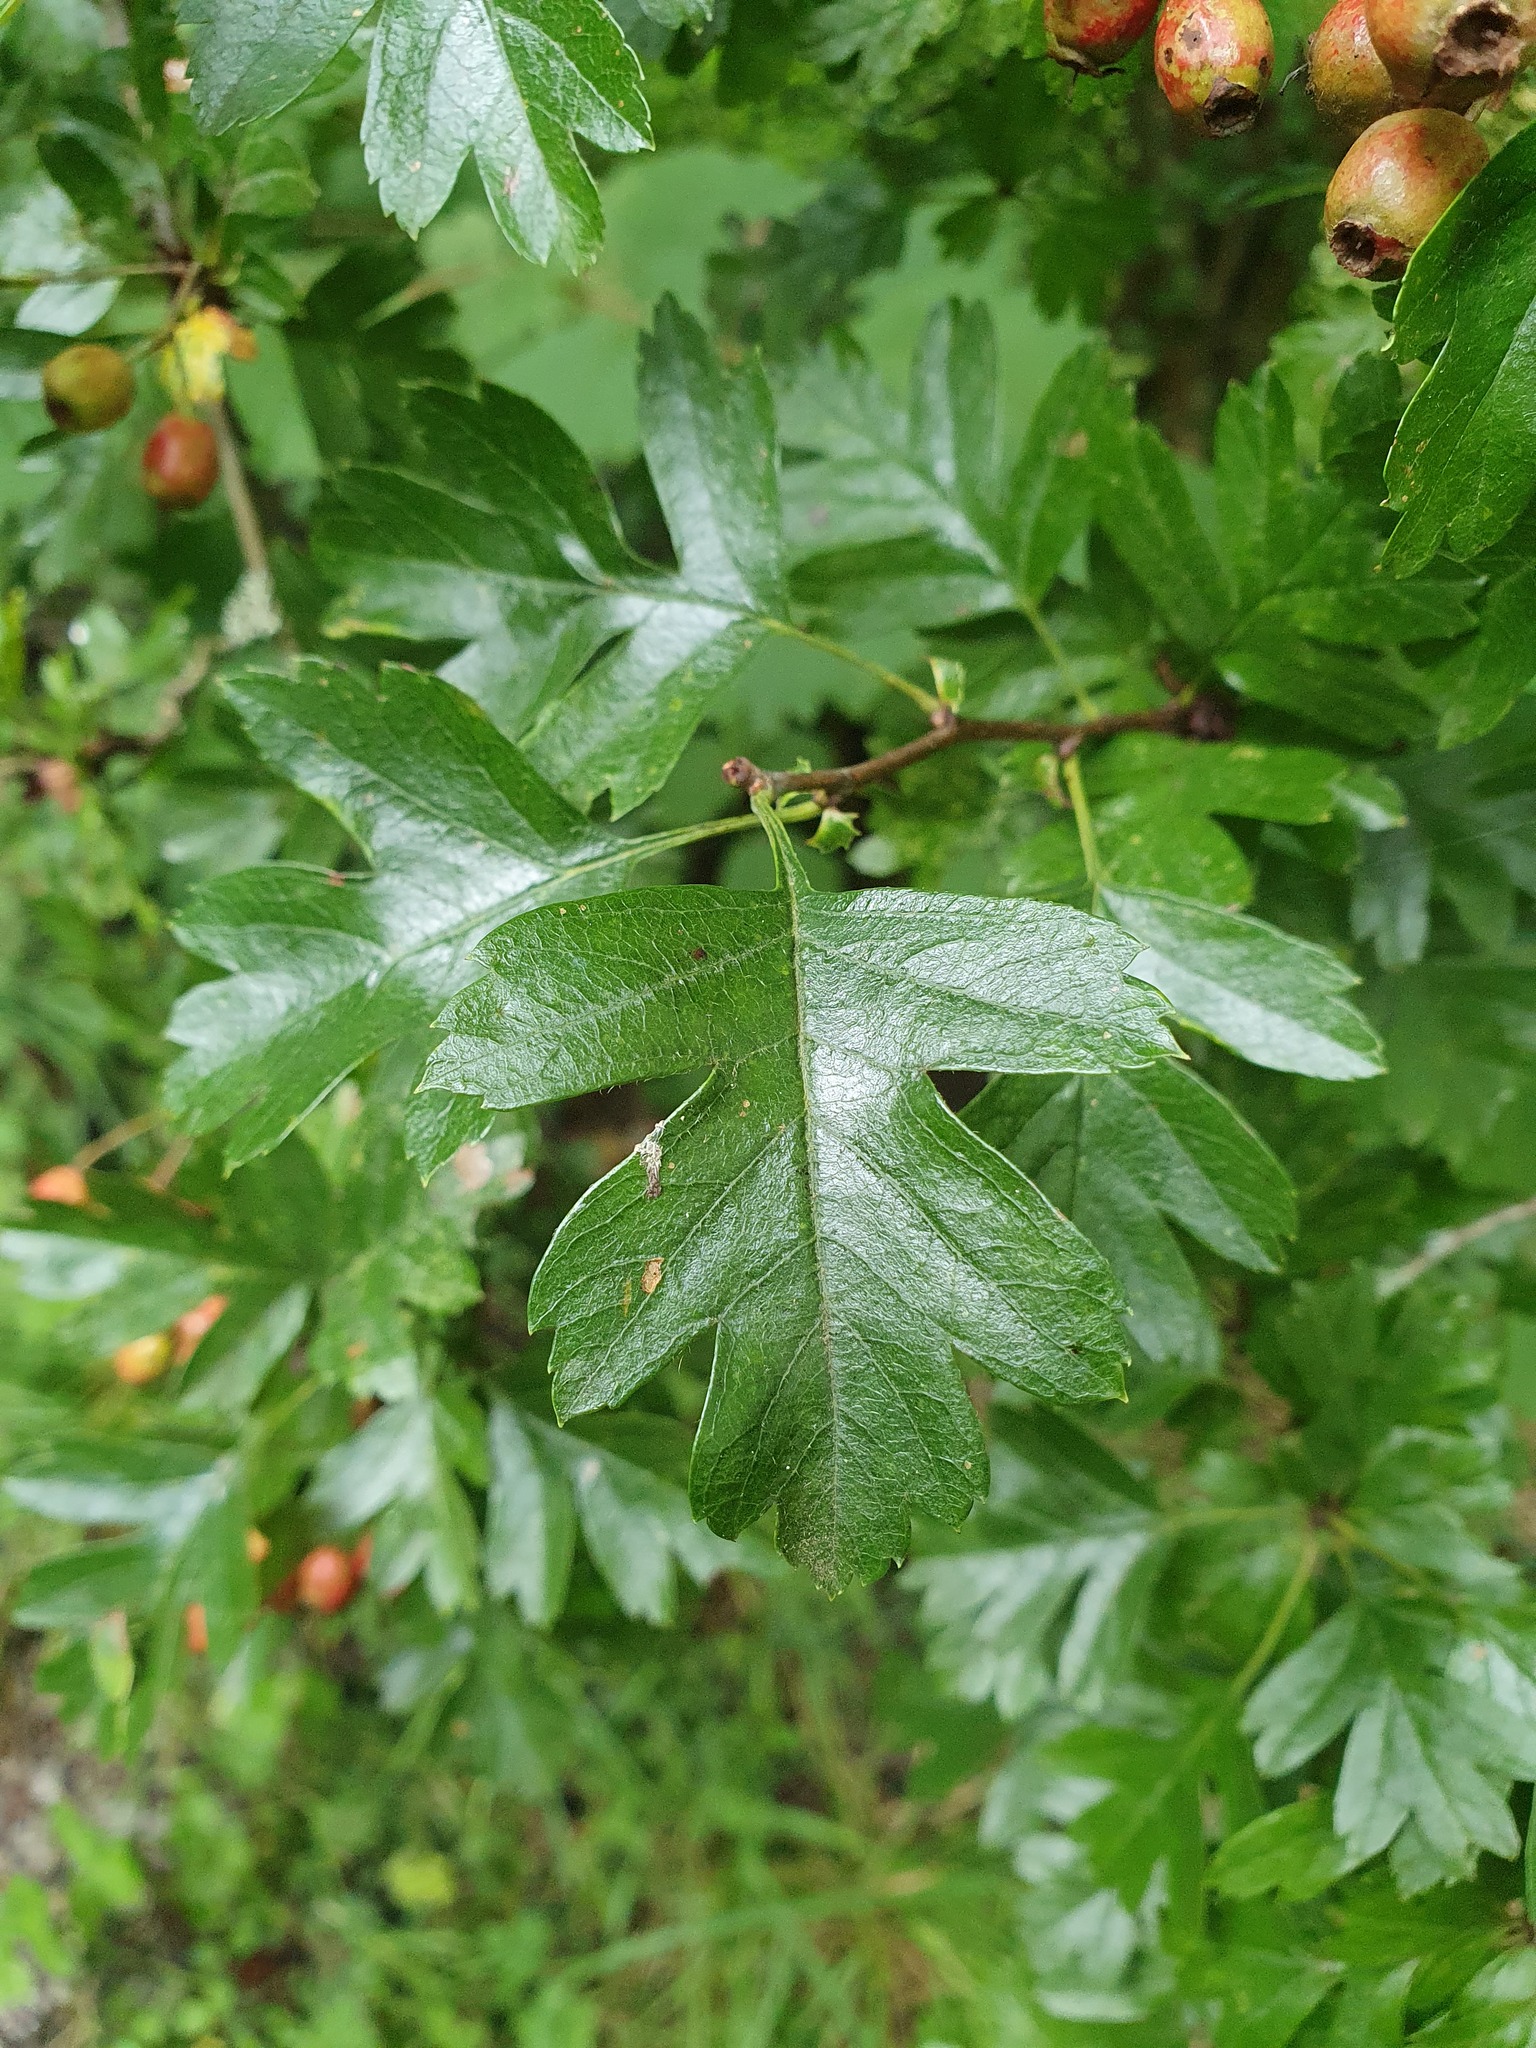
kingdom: Plantae
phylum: Tracheophyta
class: Magnoliopsida
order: Rosales
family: Rosaceae
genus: Crataegus
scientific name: Crataegus monogyna
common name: Hawthorn
